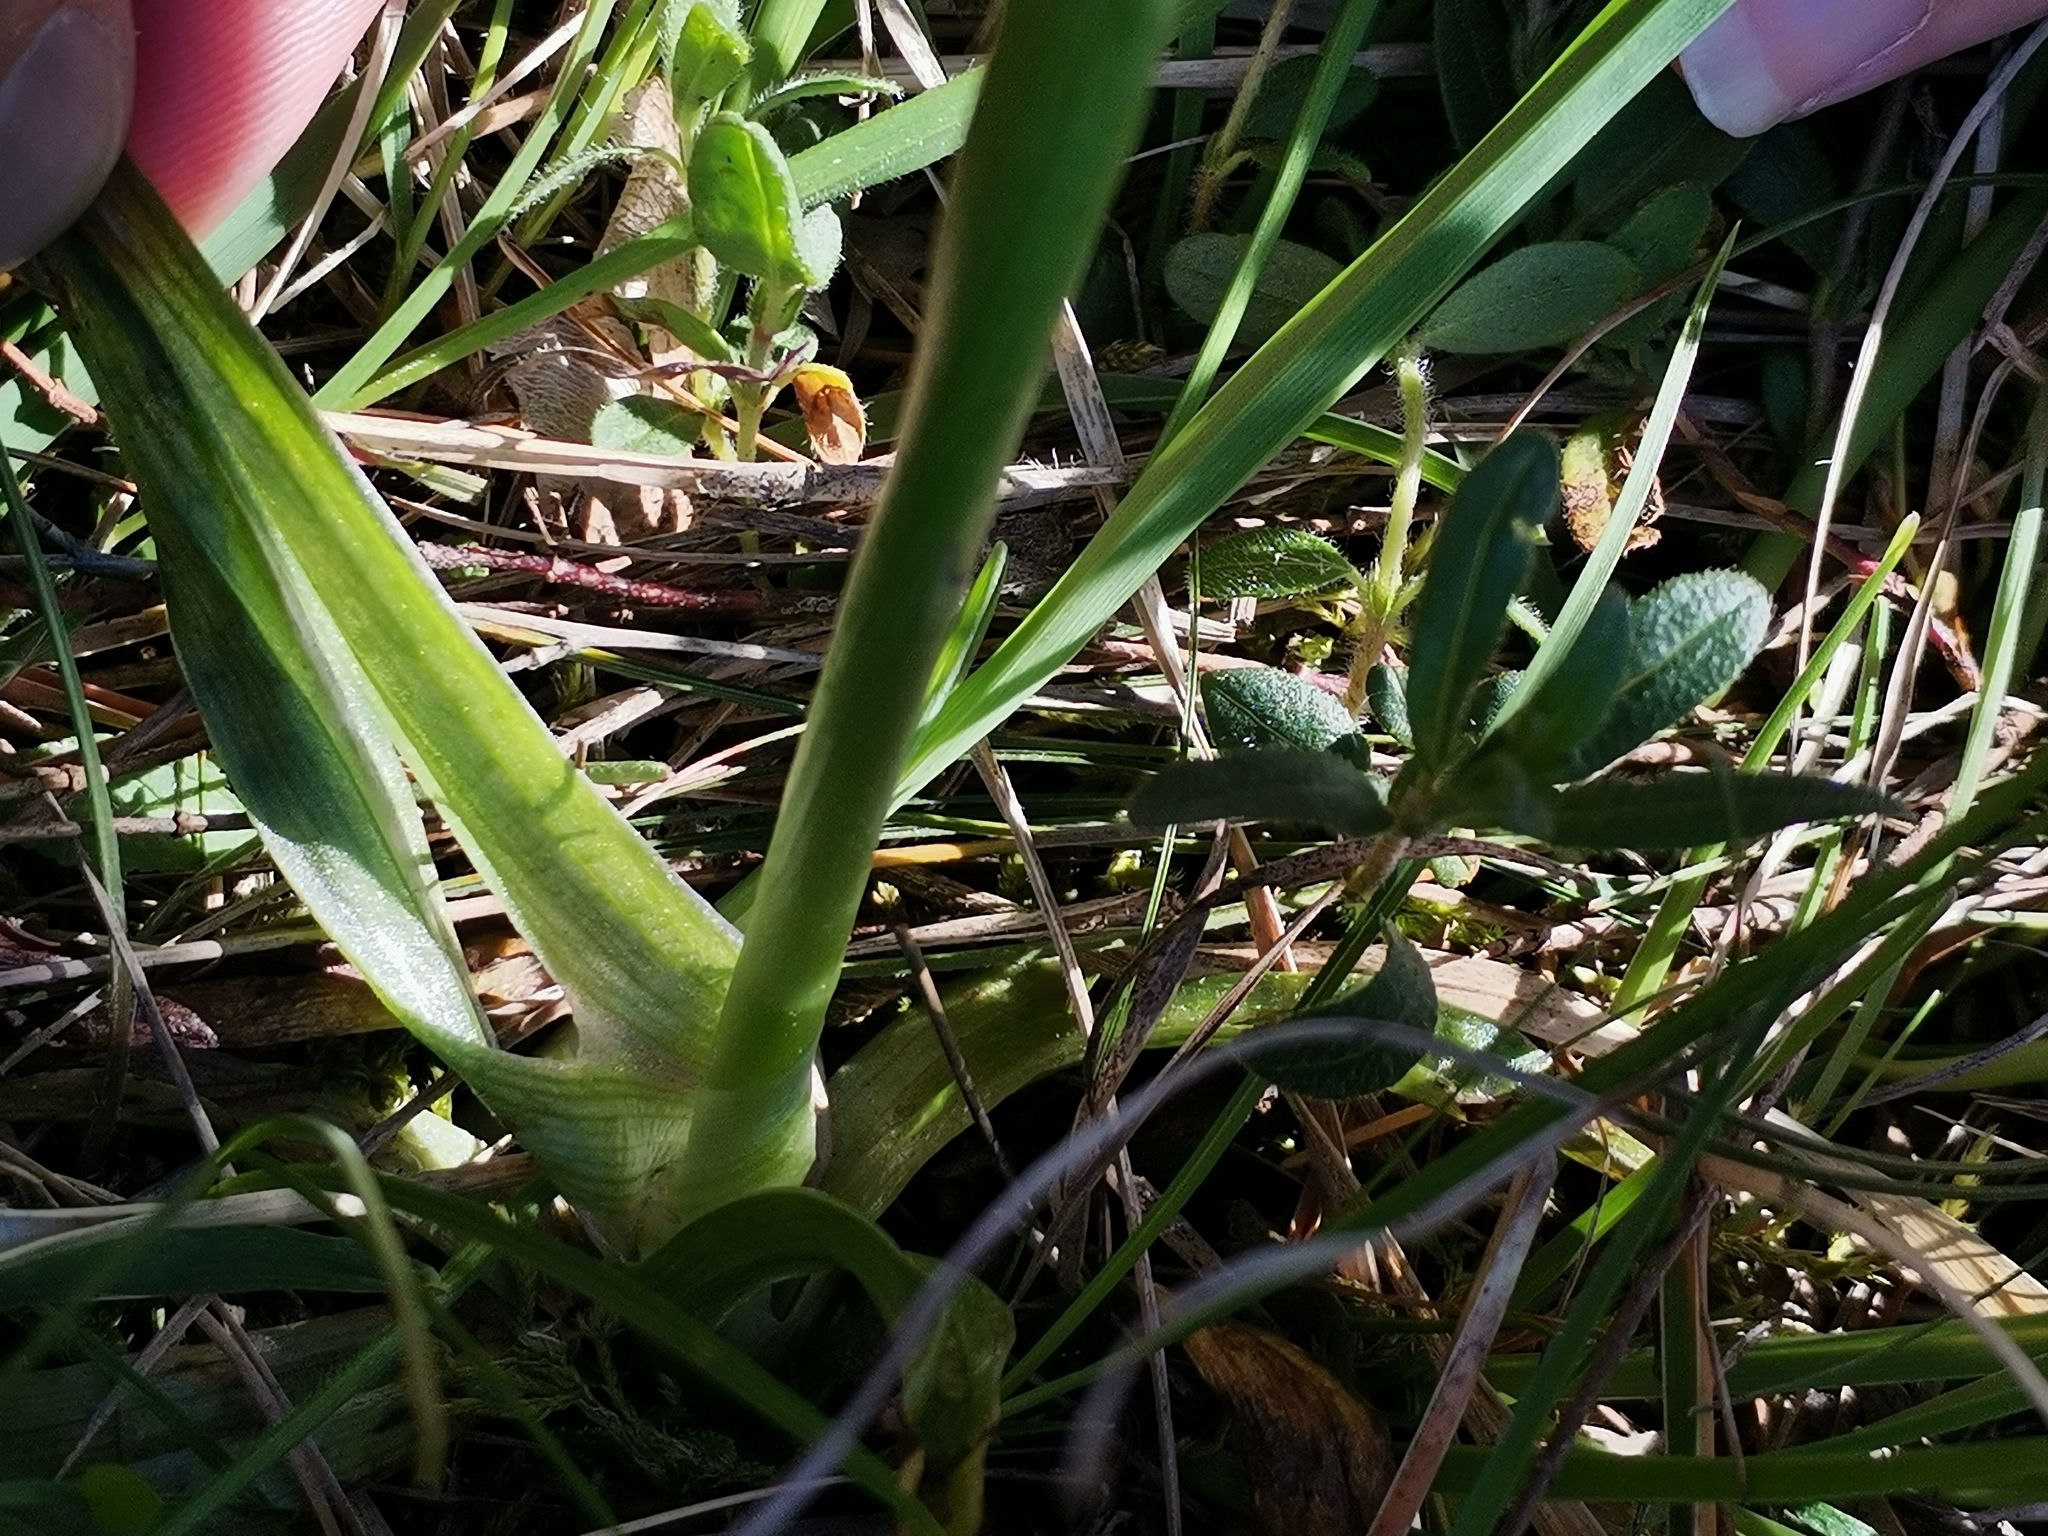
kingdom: Plantae
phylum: Tracheophyta
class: Liliopsida
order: Asparagales
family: Orchidaceae
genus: Anacamptis
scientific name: Anacamptis morio
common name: Green-winged orchid
